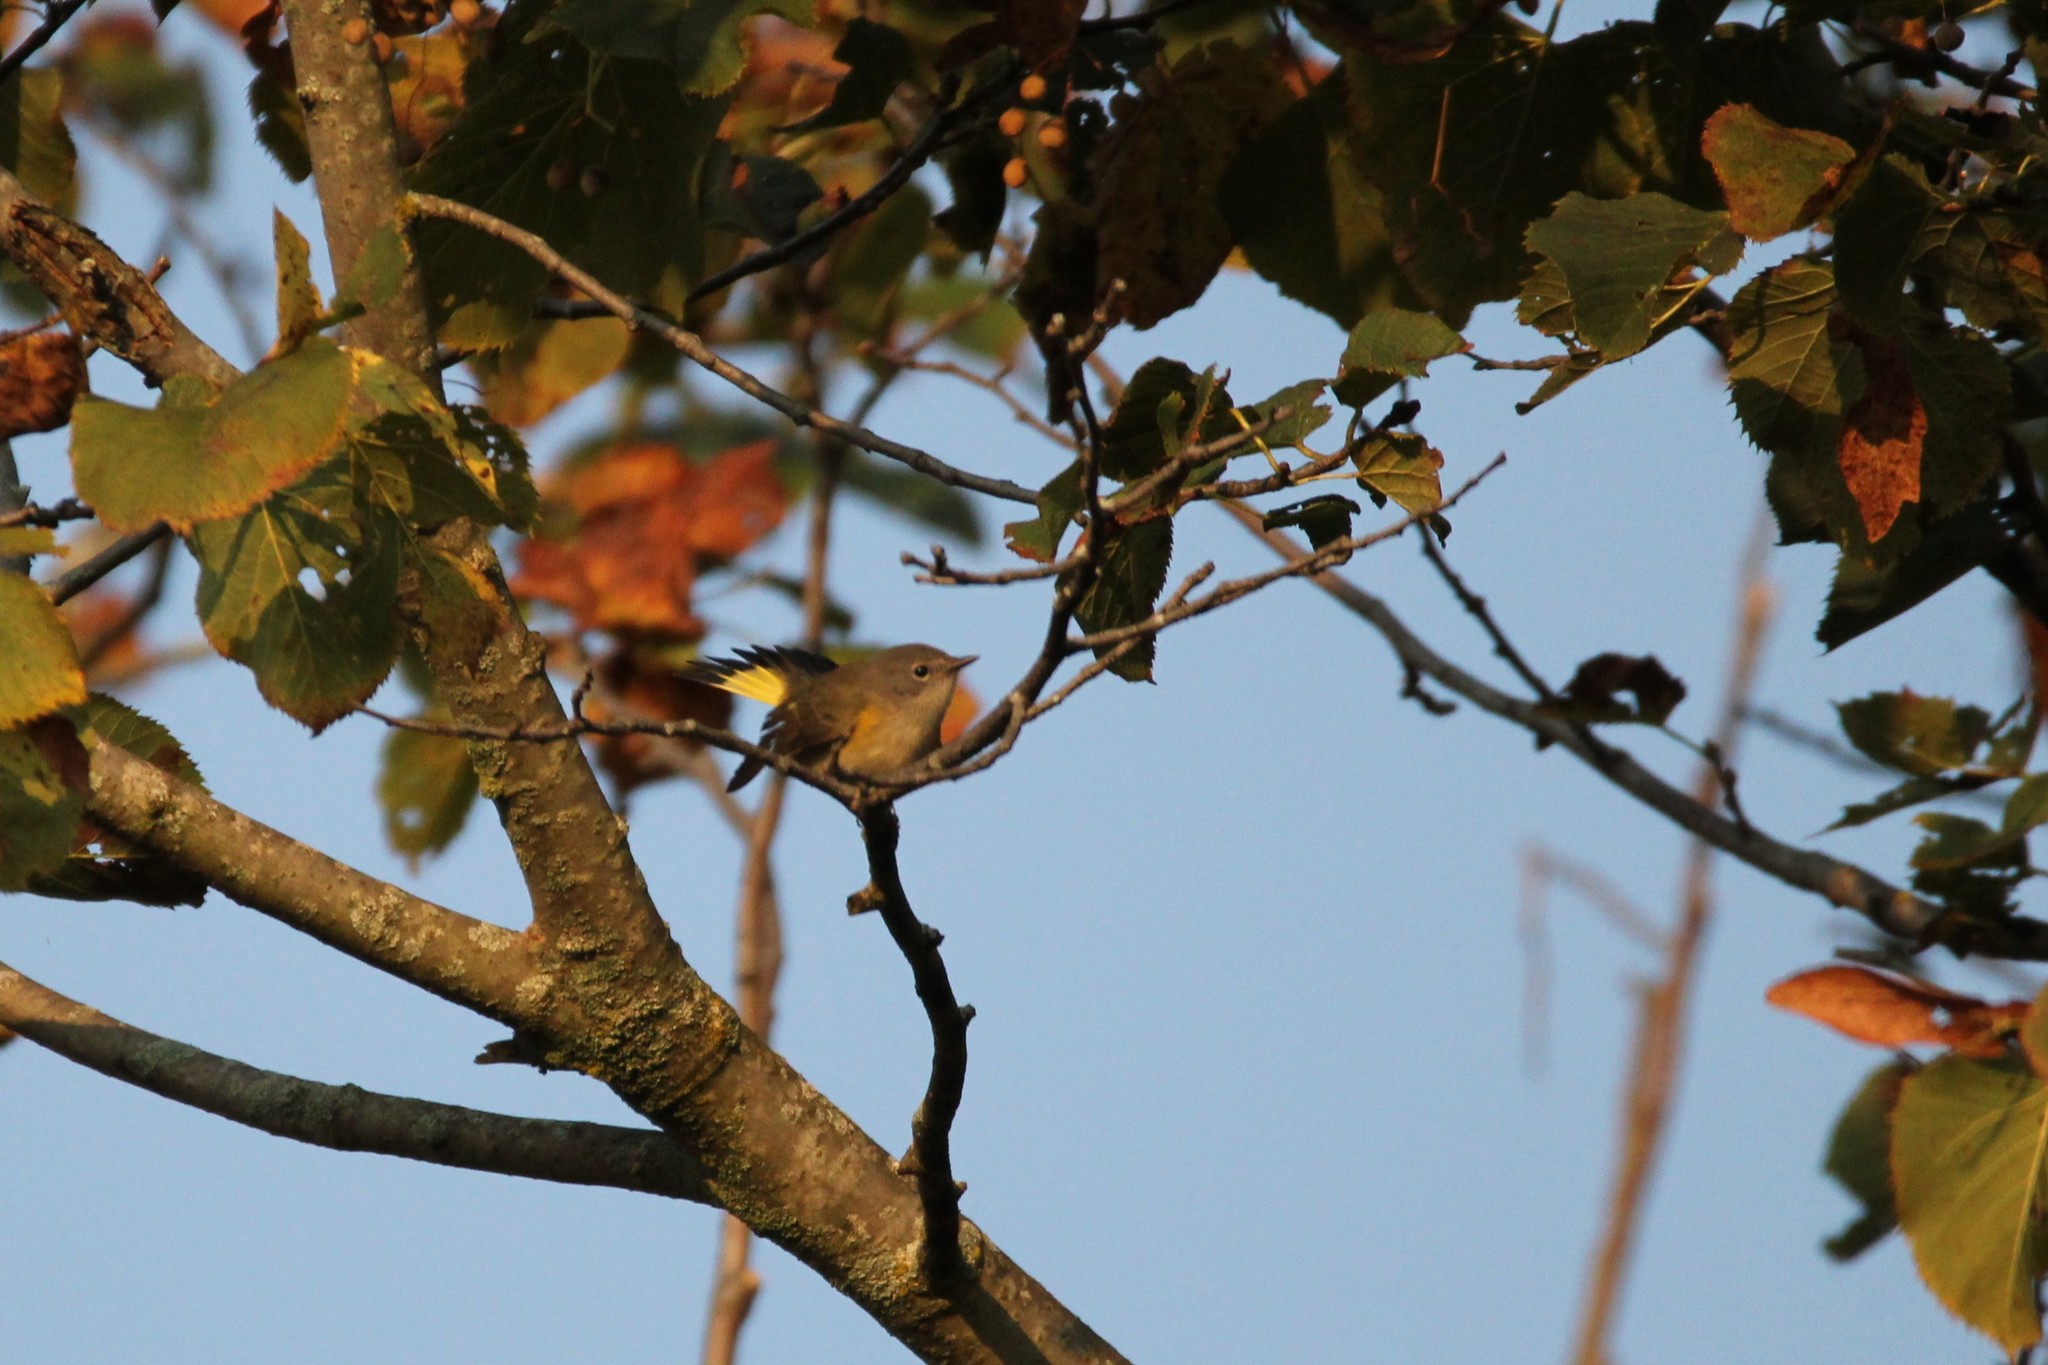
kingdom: Animalia
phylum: Chordata
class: Aves
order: Passeriformes
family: Parulidae
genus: Setophaga
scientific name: Setophaga ruticilla
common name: American redstart
